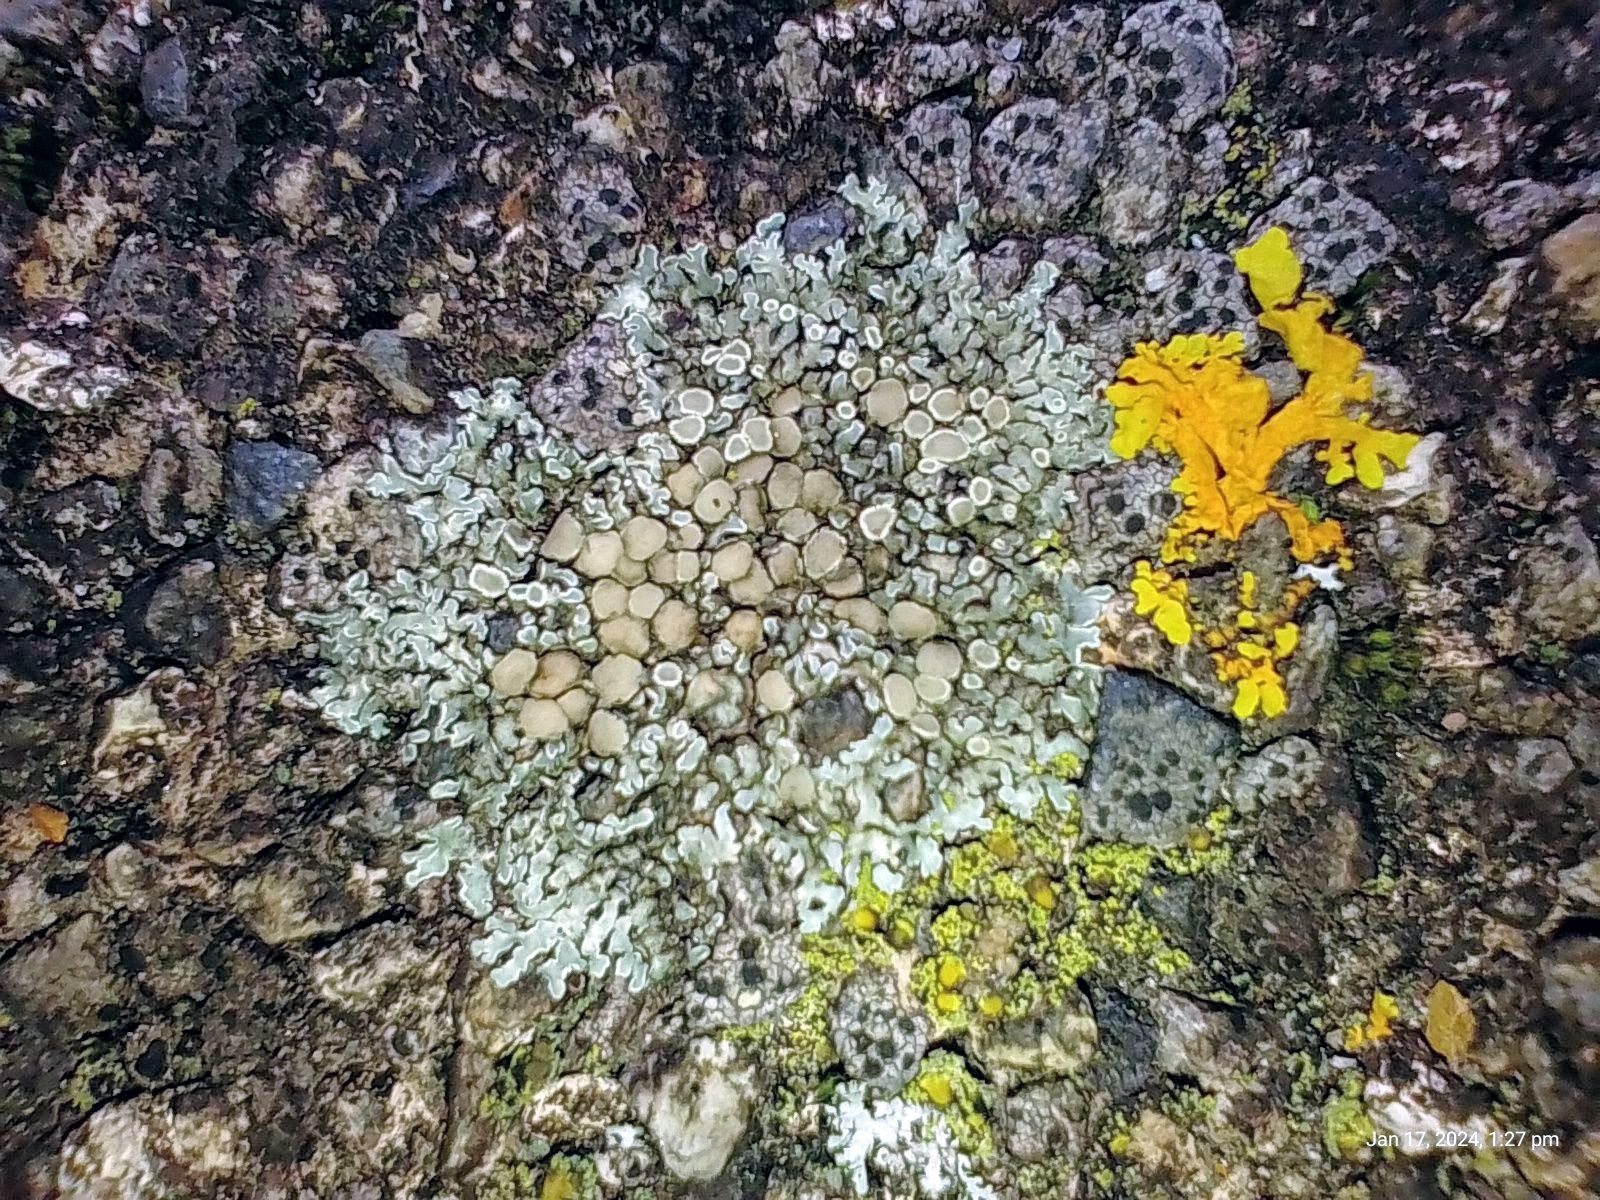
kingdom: Fungi
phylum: Ascomycota
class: Lecanoromycetes
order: Lecanorales
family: Lecanoraceae
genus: Protoparmeliopsis
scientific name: Protoparmeliopsis muralis
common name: Stonewall rim lichen
